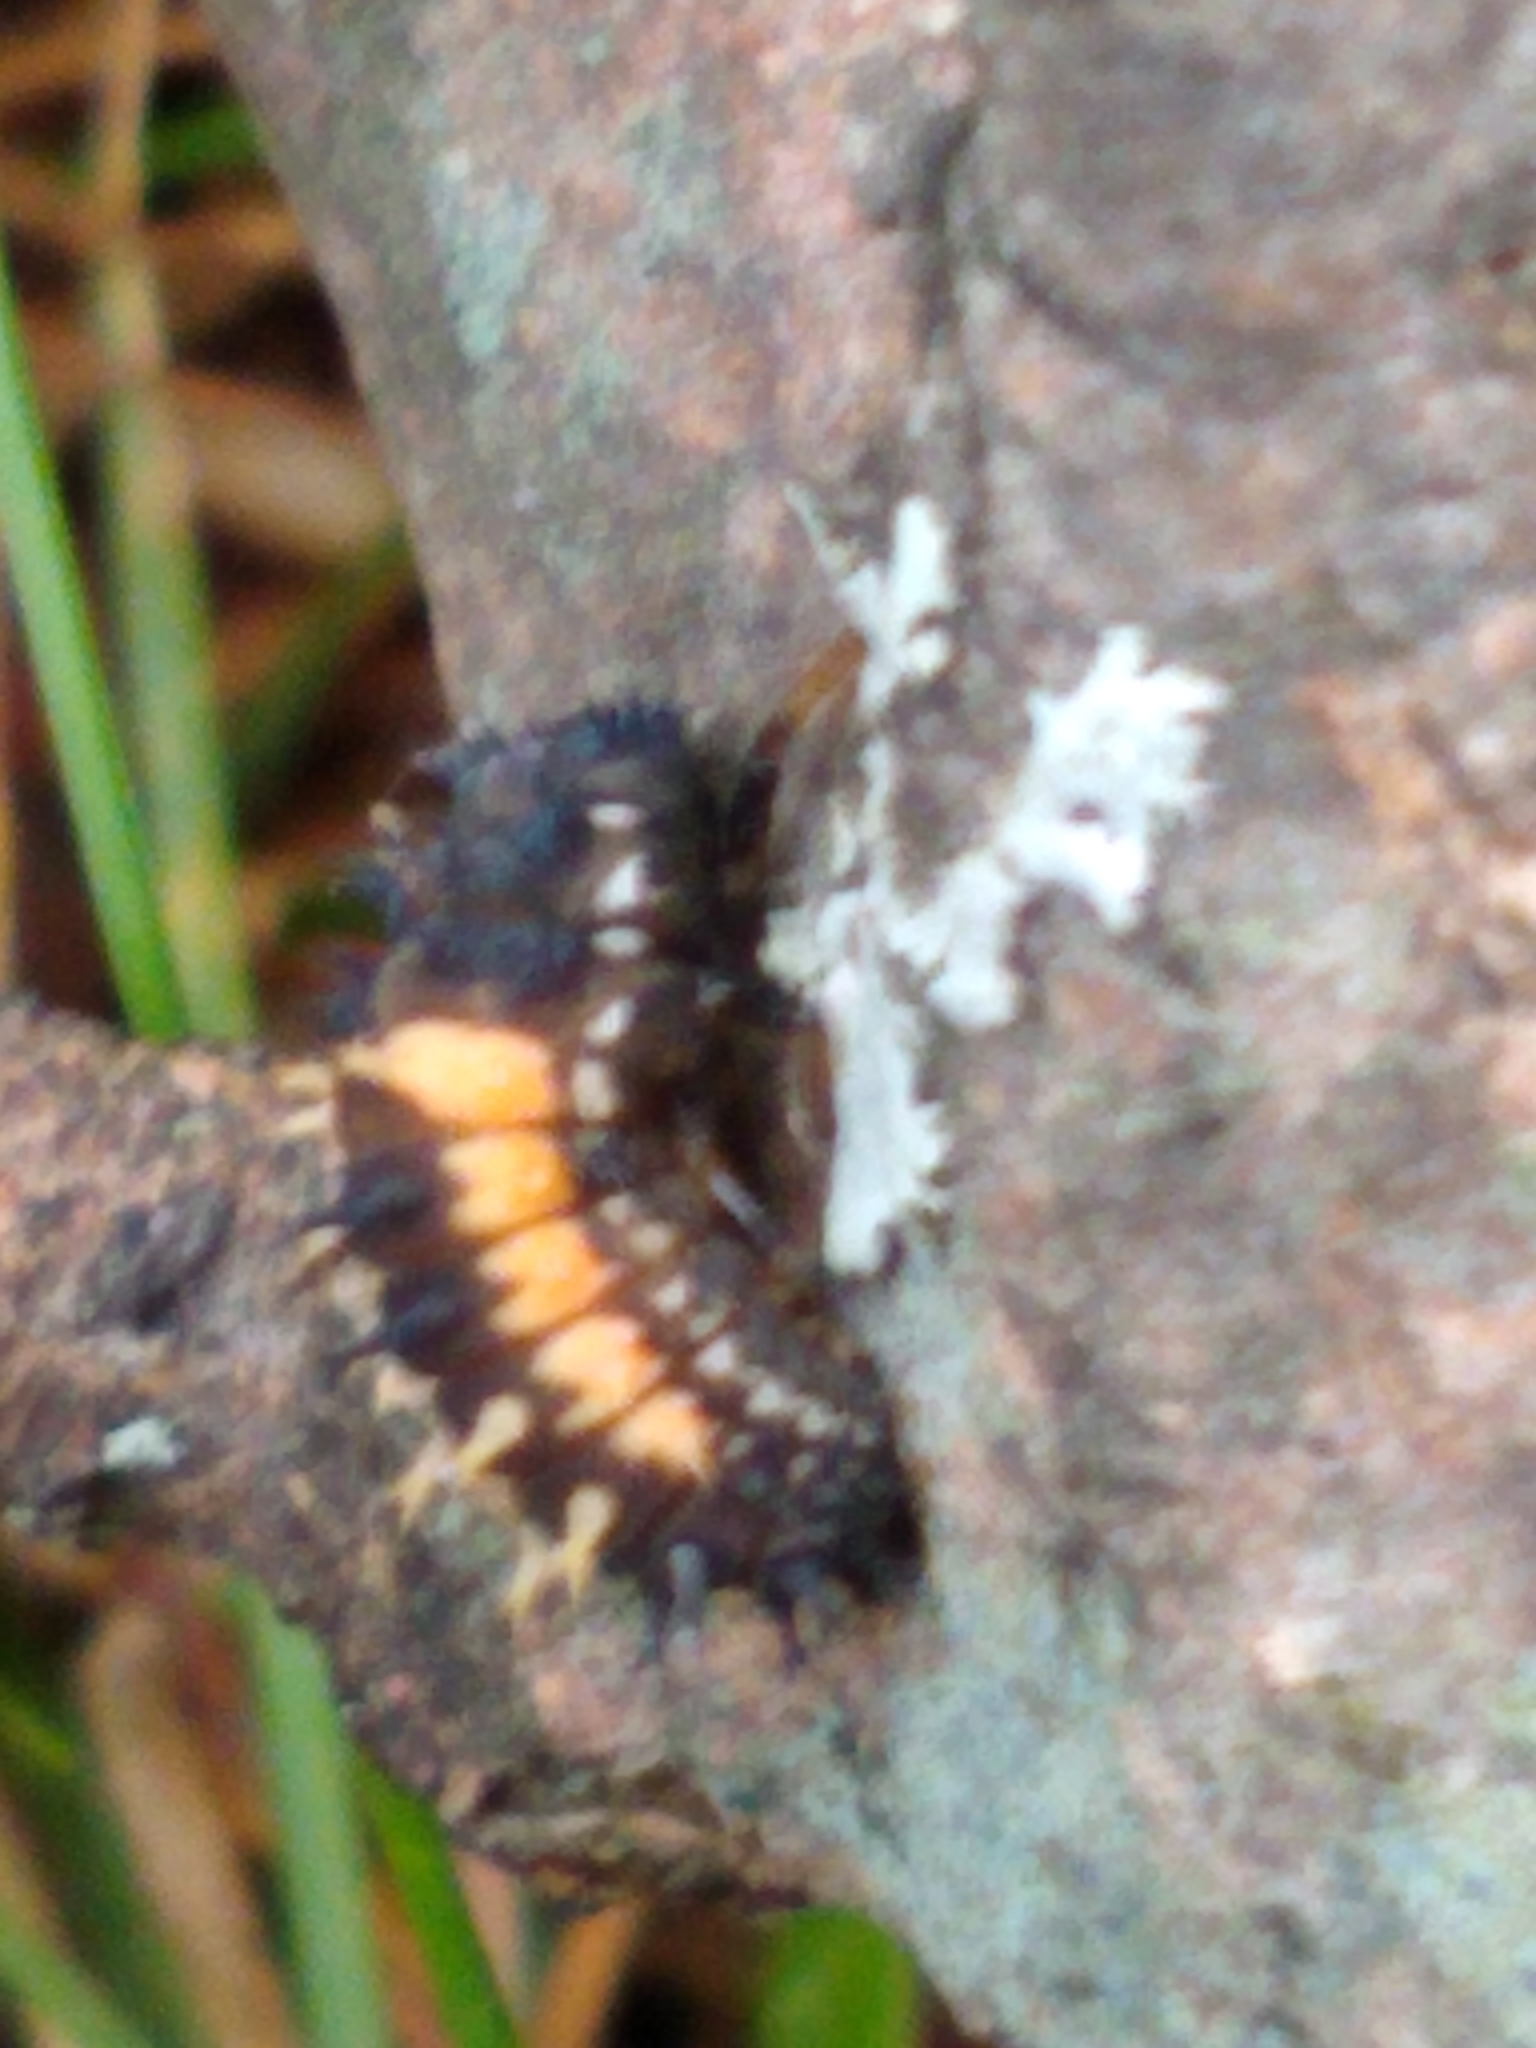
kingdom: Animalia
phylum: Arthropoda
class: Insecta
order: Coleoptera
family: Coccinellidae
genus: Harmonia
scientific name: Harmonia axyridis
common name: Harlequin ladybird
